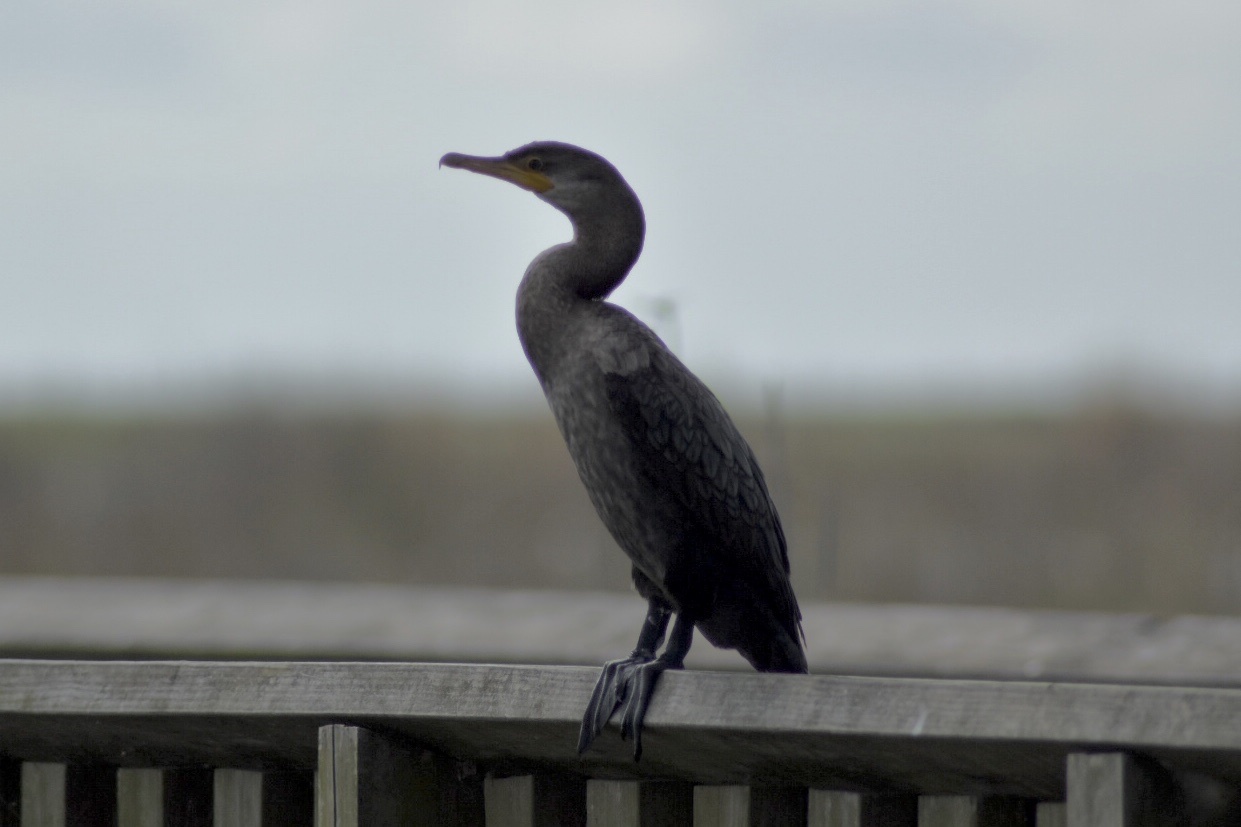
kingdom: Animalia
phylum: Chordata
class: Aves
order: Suliformes
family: Phalacrocoracidae
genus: Phalacrocorax
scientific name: Phalacrocorax brasilianus
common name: Neotropic cormorant
